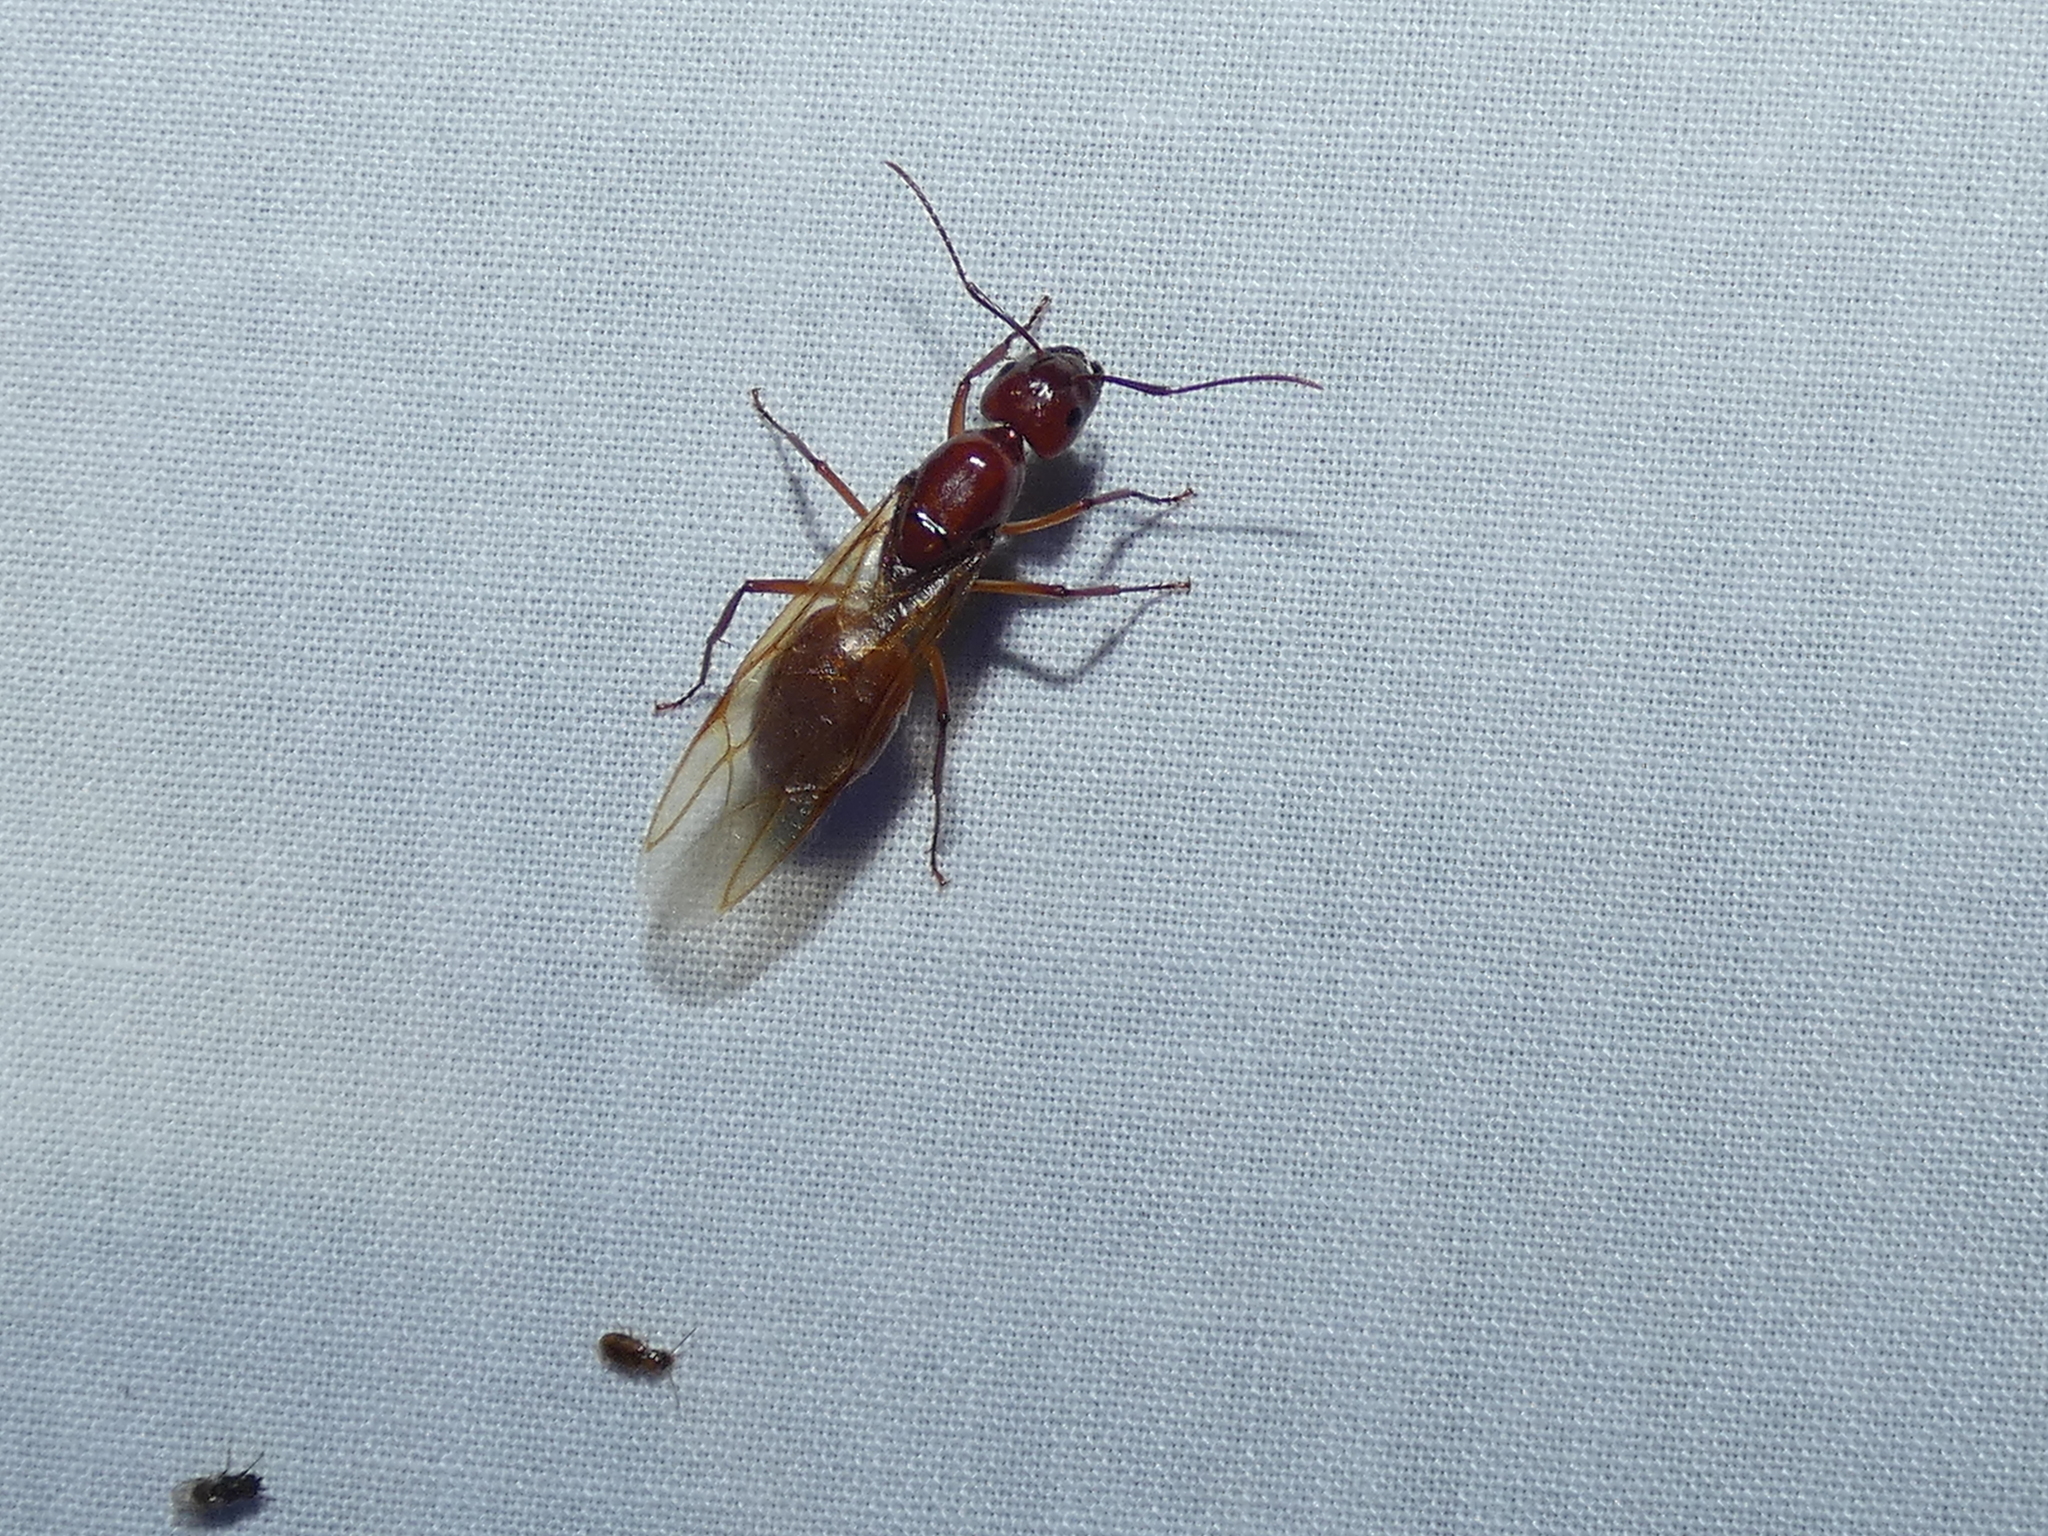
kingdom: Animalia
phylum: Arthropoda
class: Insecta
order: Hymenoptera
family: Formicidae
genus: Camponotus
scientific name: Camponotus castaneus
